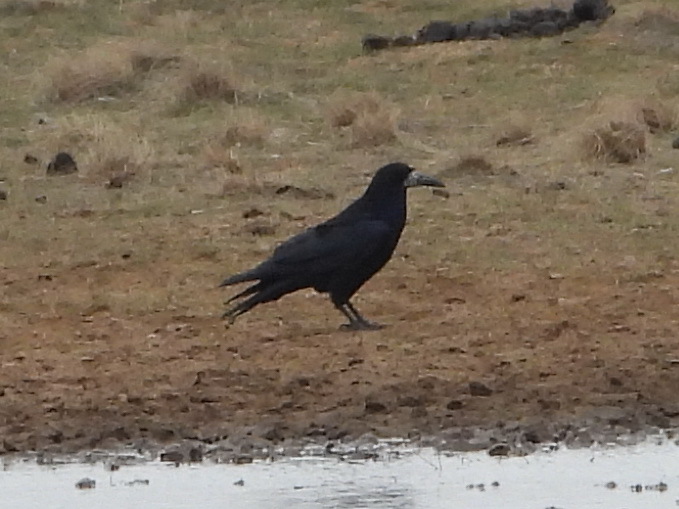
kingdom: Animalia
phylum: Chordata
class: Aves
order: Passeriformes
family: Corvidae
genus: Corvus
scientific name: Corvus frugilegus
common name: Rook
